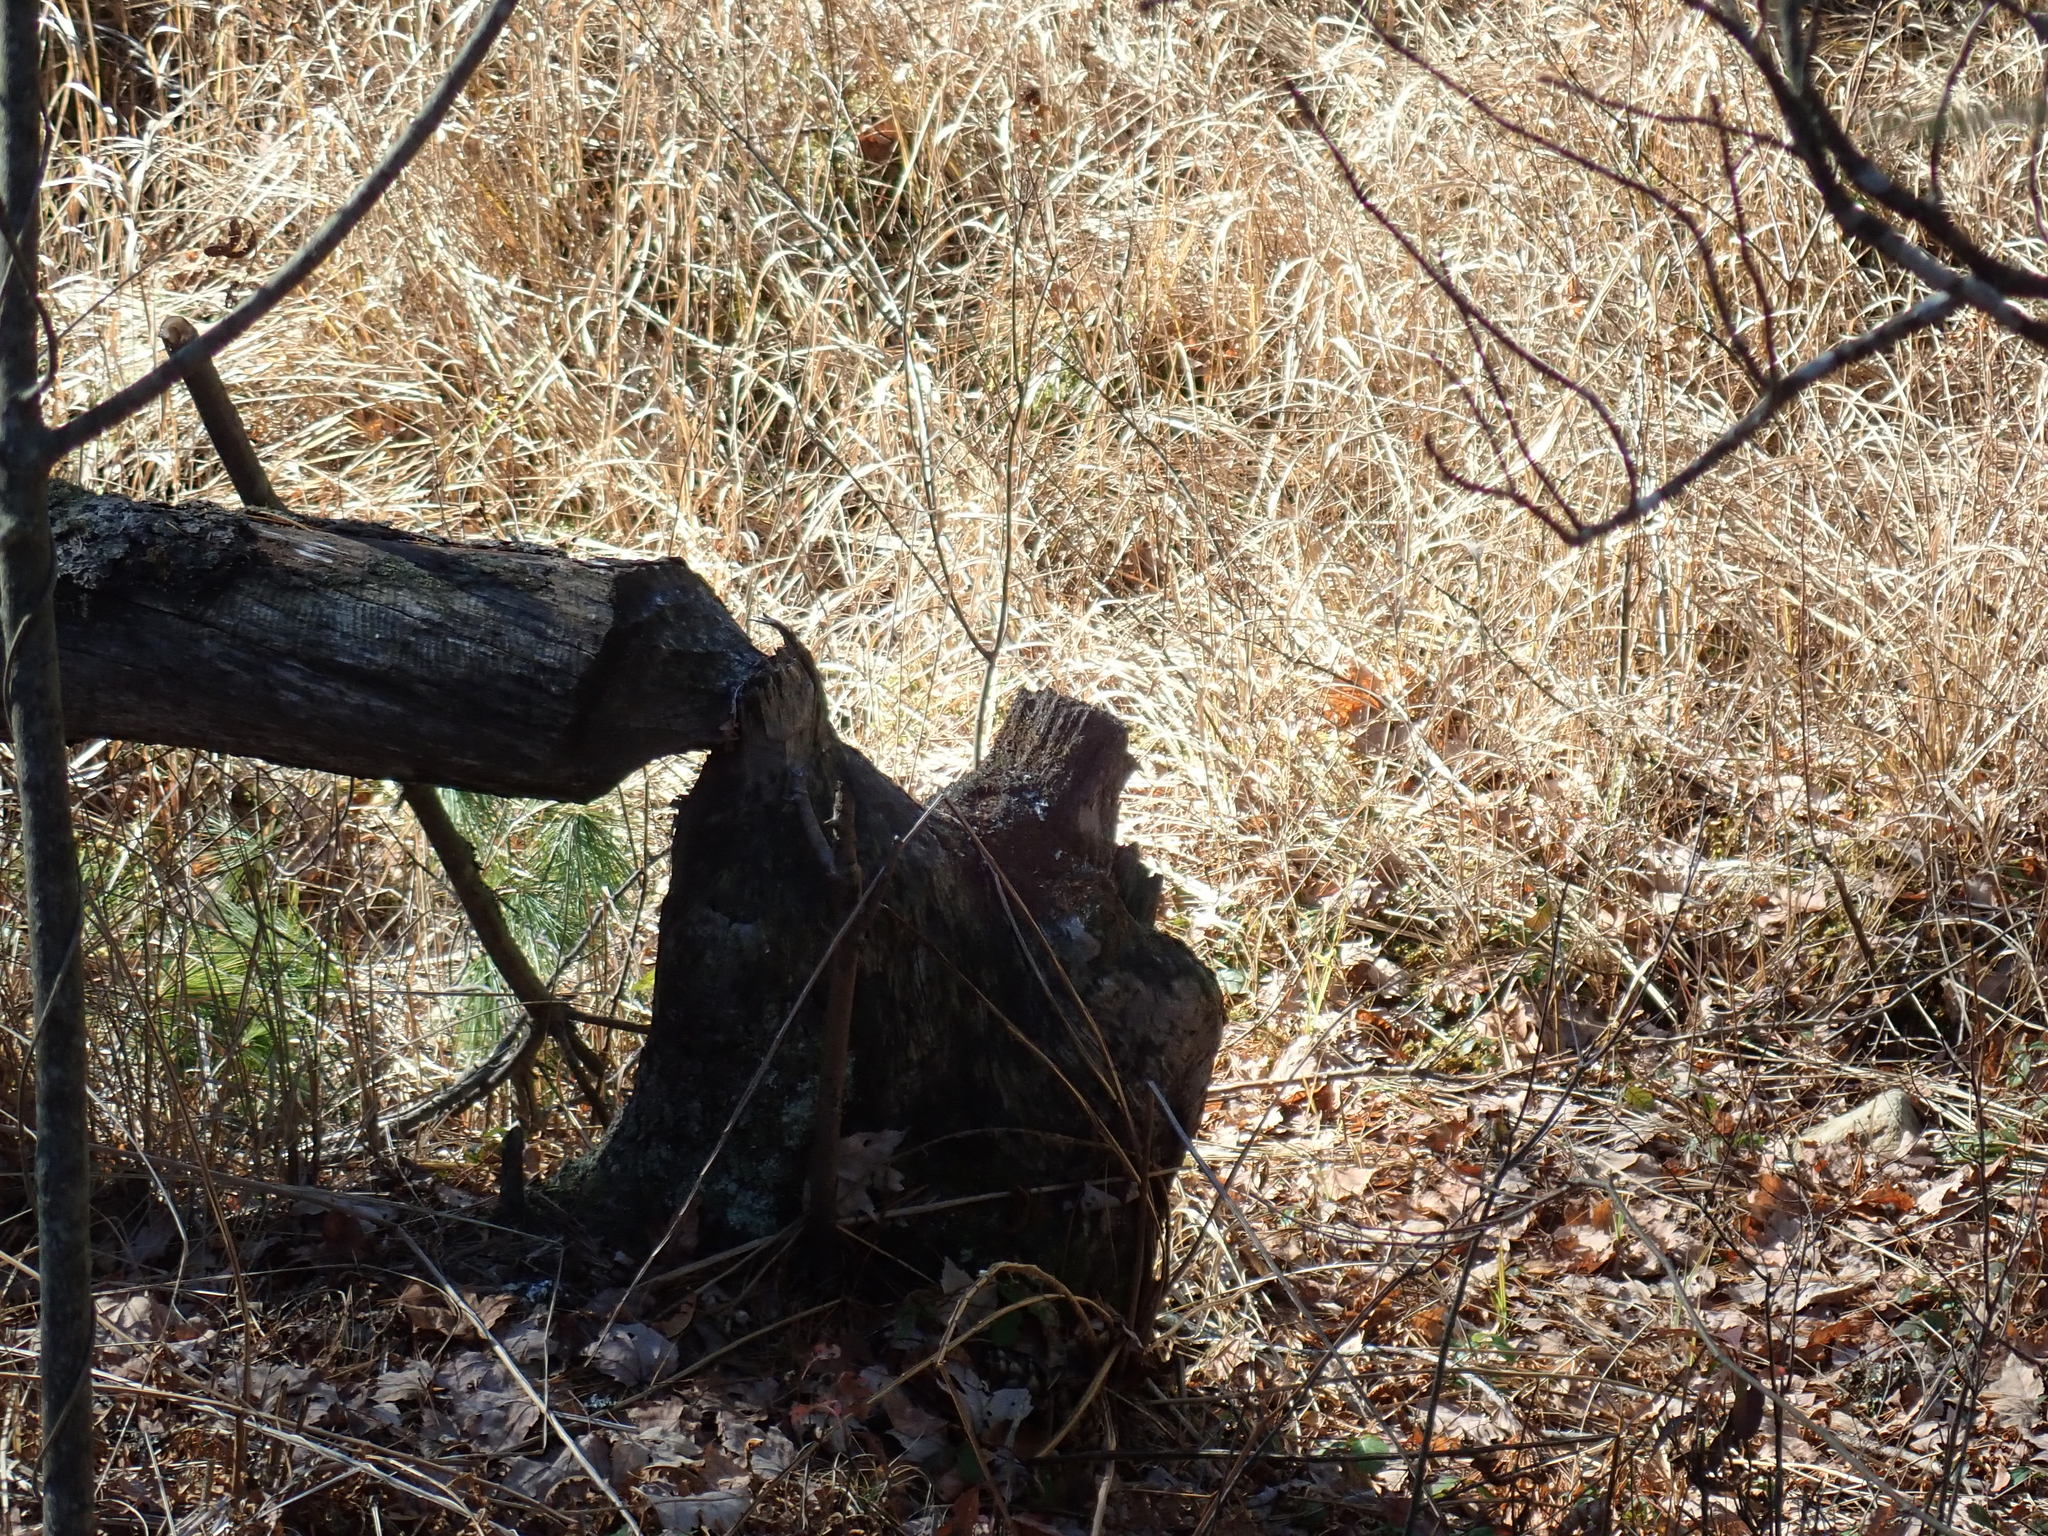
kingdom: Animalia
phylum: Chordata
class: Mammalia
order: Rodentia
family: Castoridae
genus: Castor
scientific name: Castor canadensis
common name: American beaver
